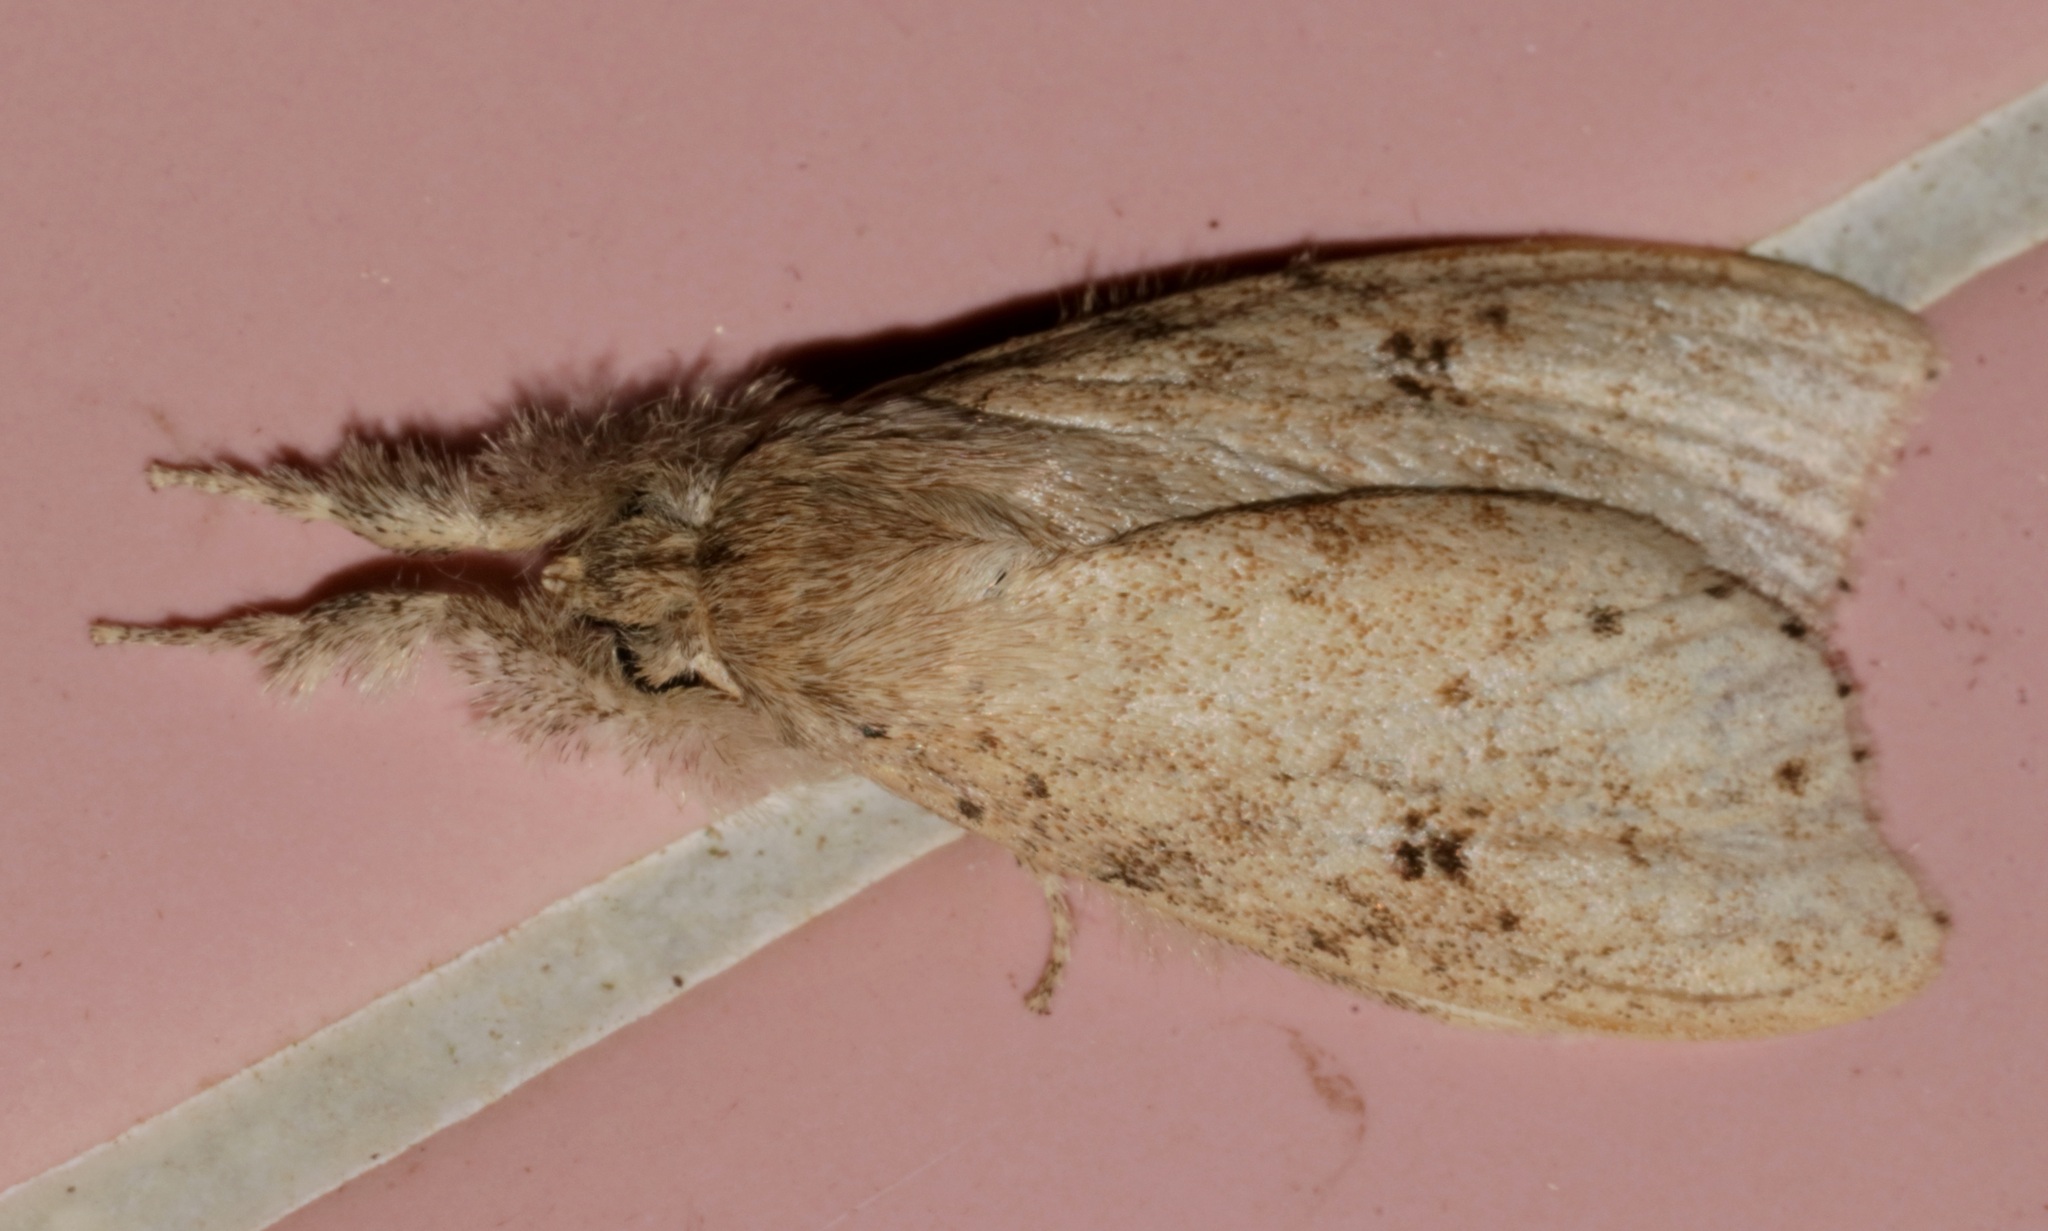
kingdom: Animalia
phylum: Arthropoda
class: Insecta
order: Lepidoptera
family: Erebidae
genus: Calliteara
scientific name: Calliteara angulata
